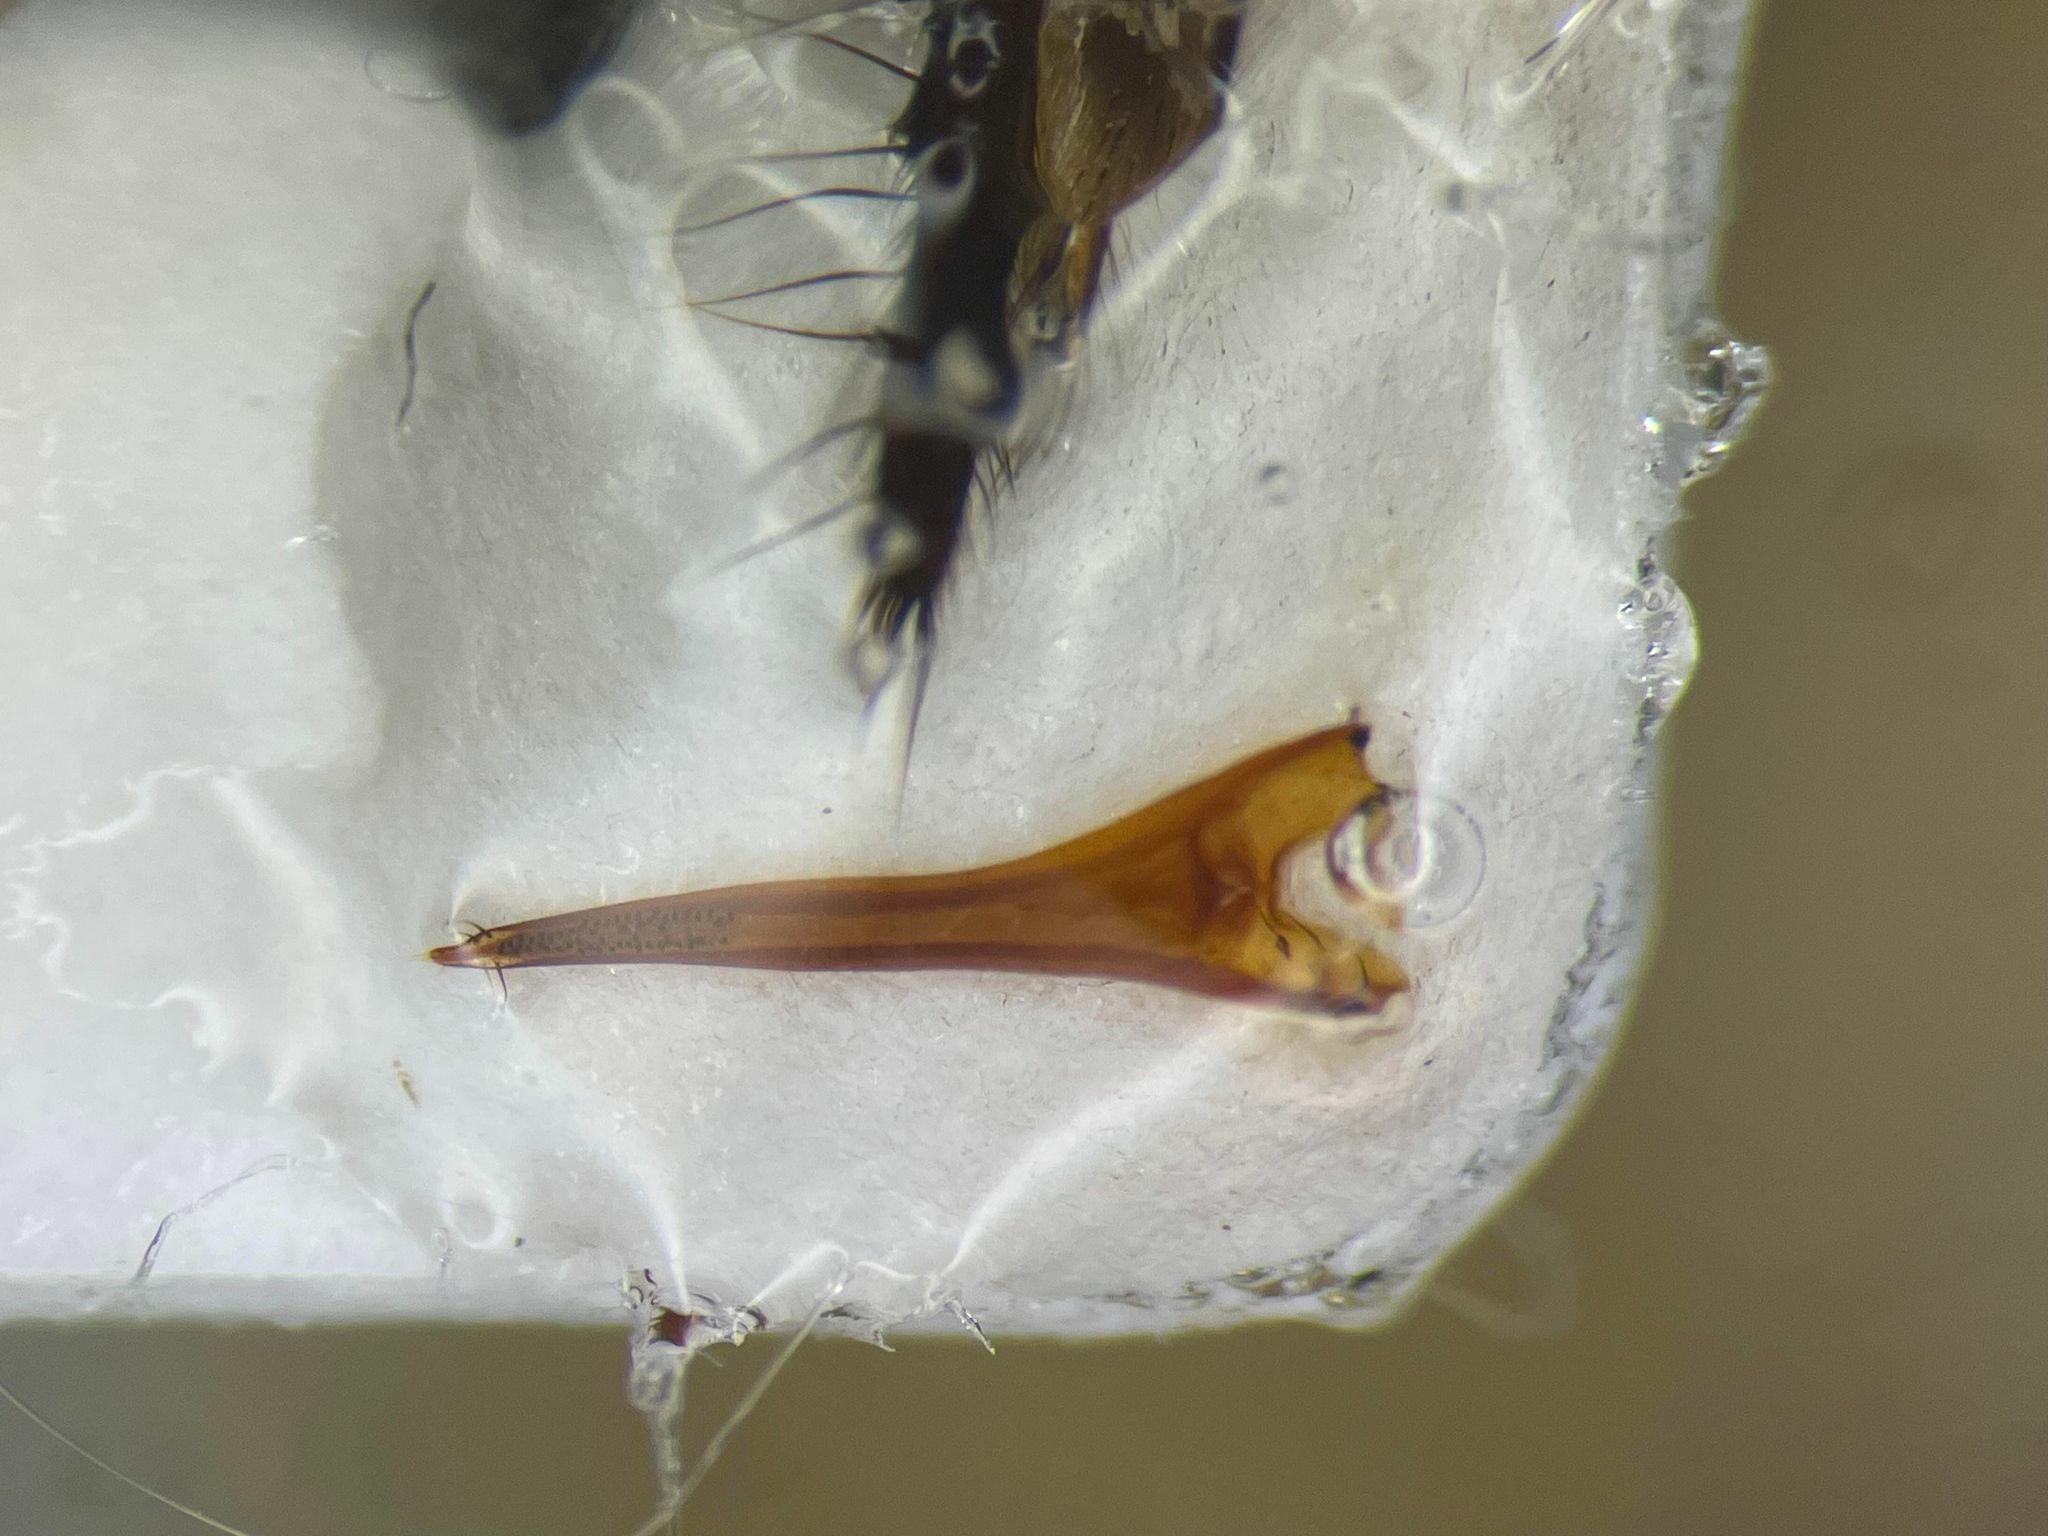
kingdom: Animalia
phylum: Arthropoda
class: Insecta
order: Coleoptera
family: Staphylinidae
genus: Quedius
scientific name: Quedius simplicifrons
